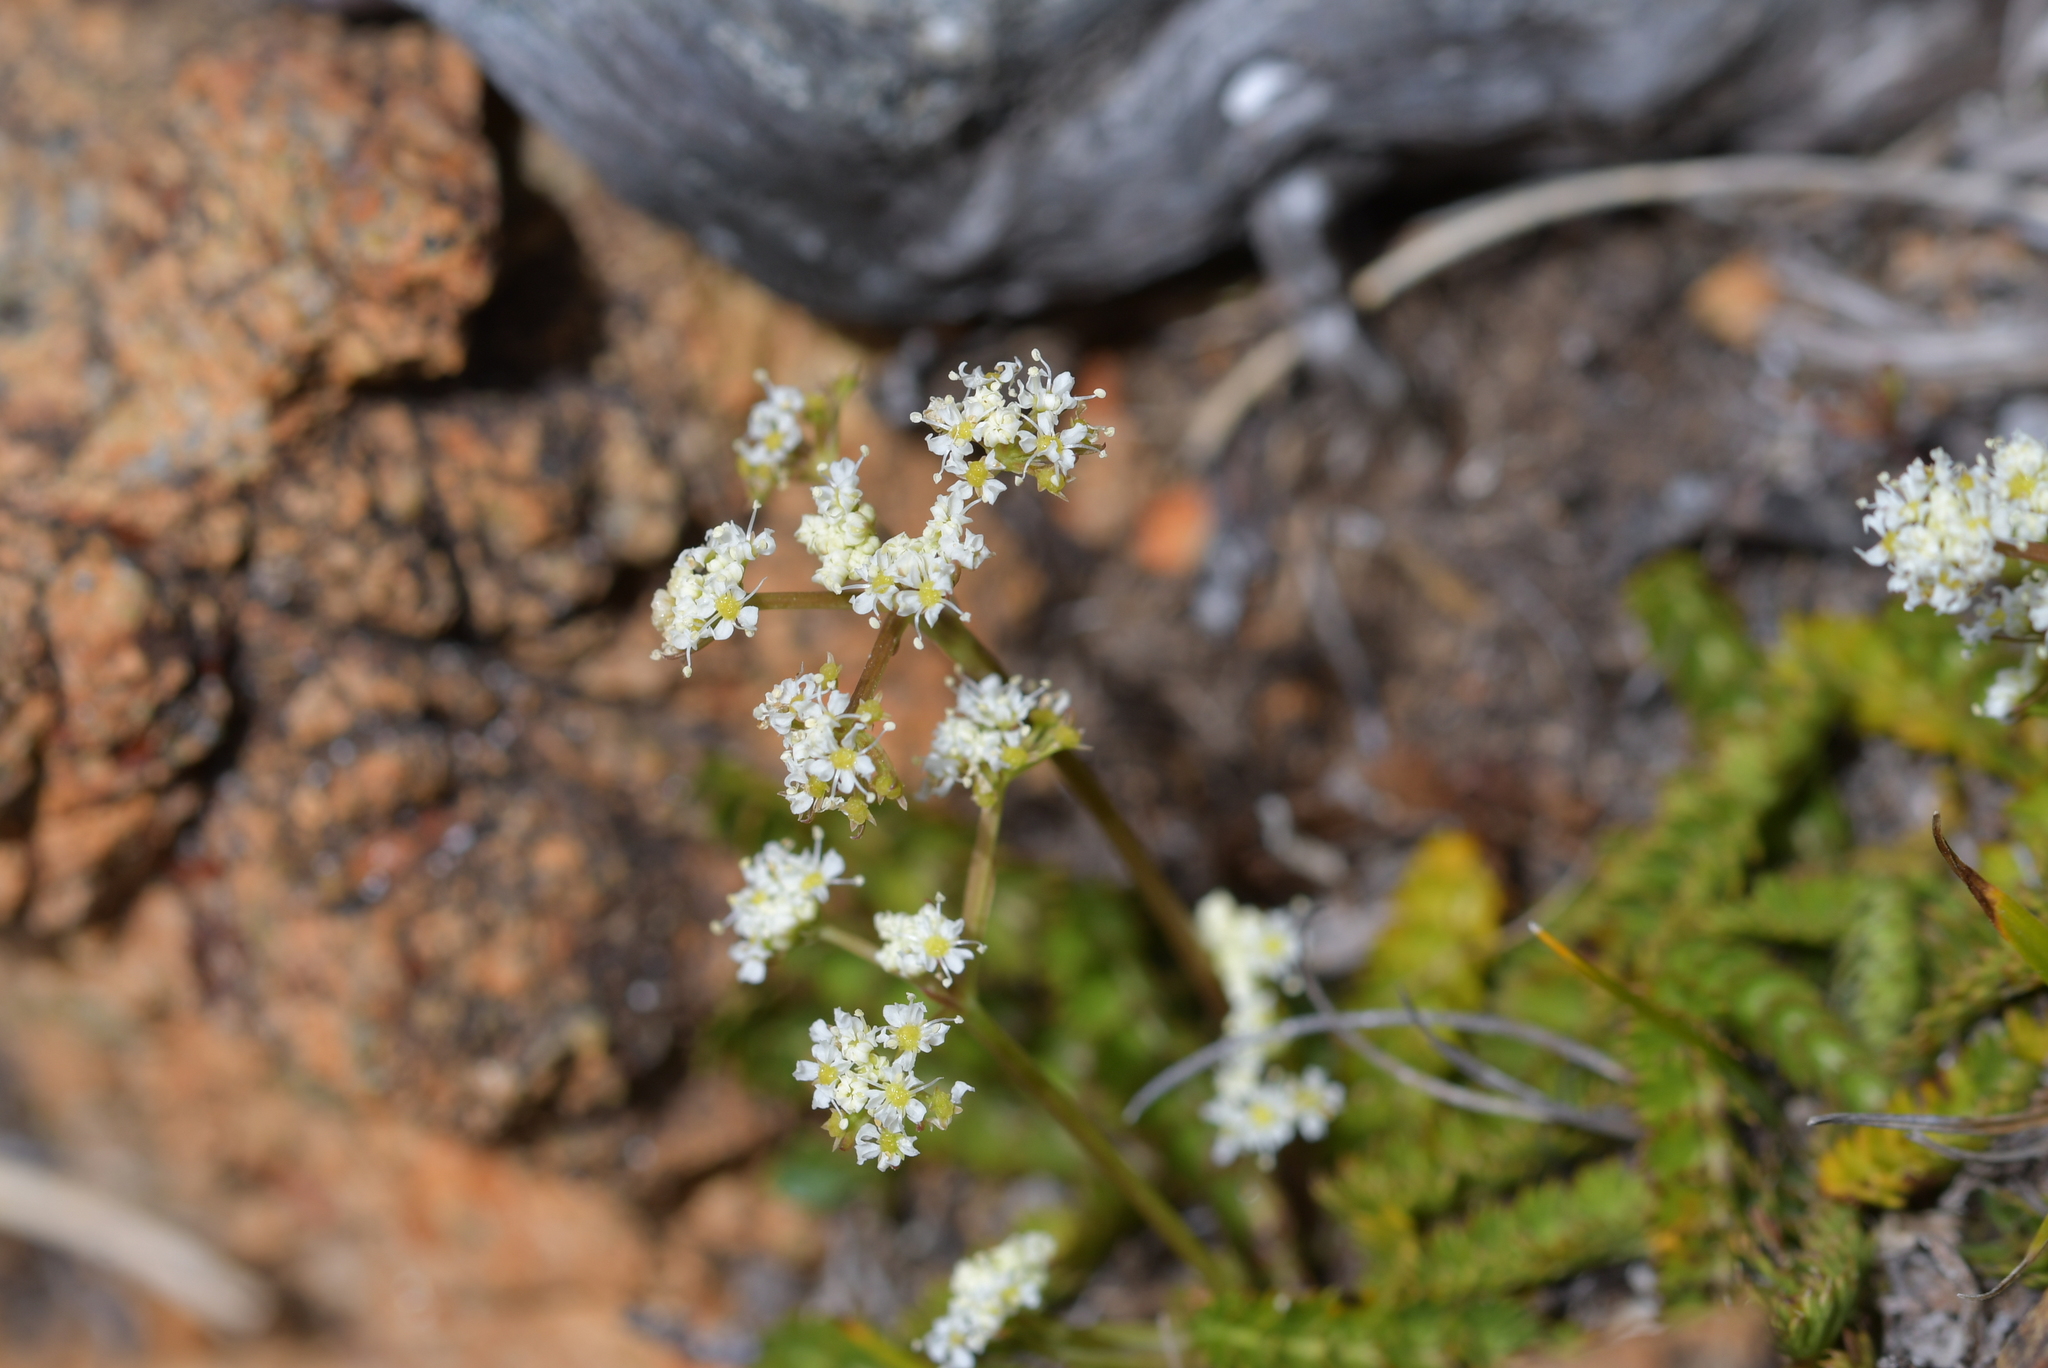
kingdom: Plantae
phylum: Tracheophyta
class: Magnoliopsida
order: Apiales
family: Apiaceae
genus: Anisotome
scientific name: Anisotome aromatica
